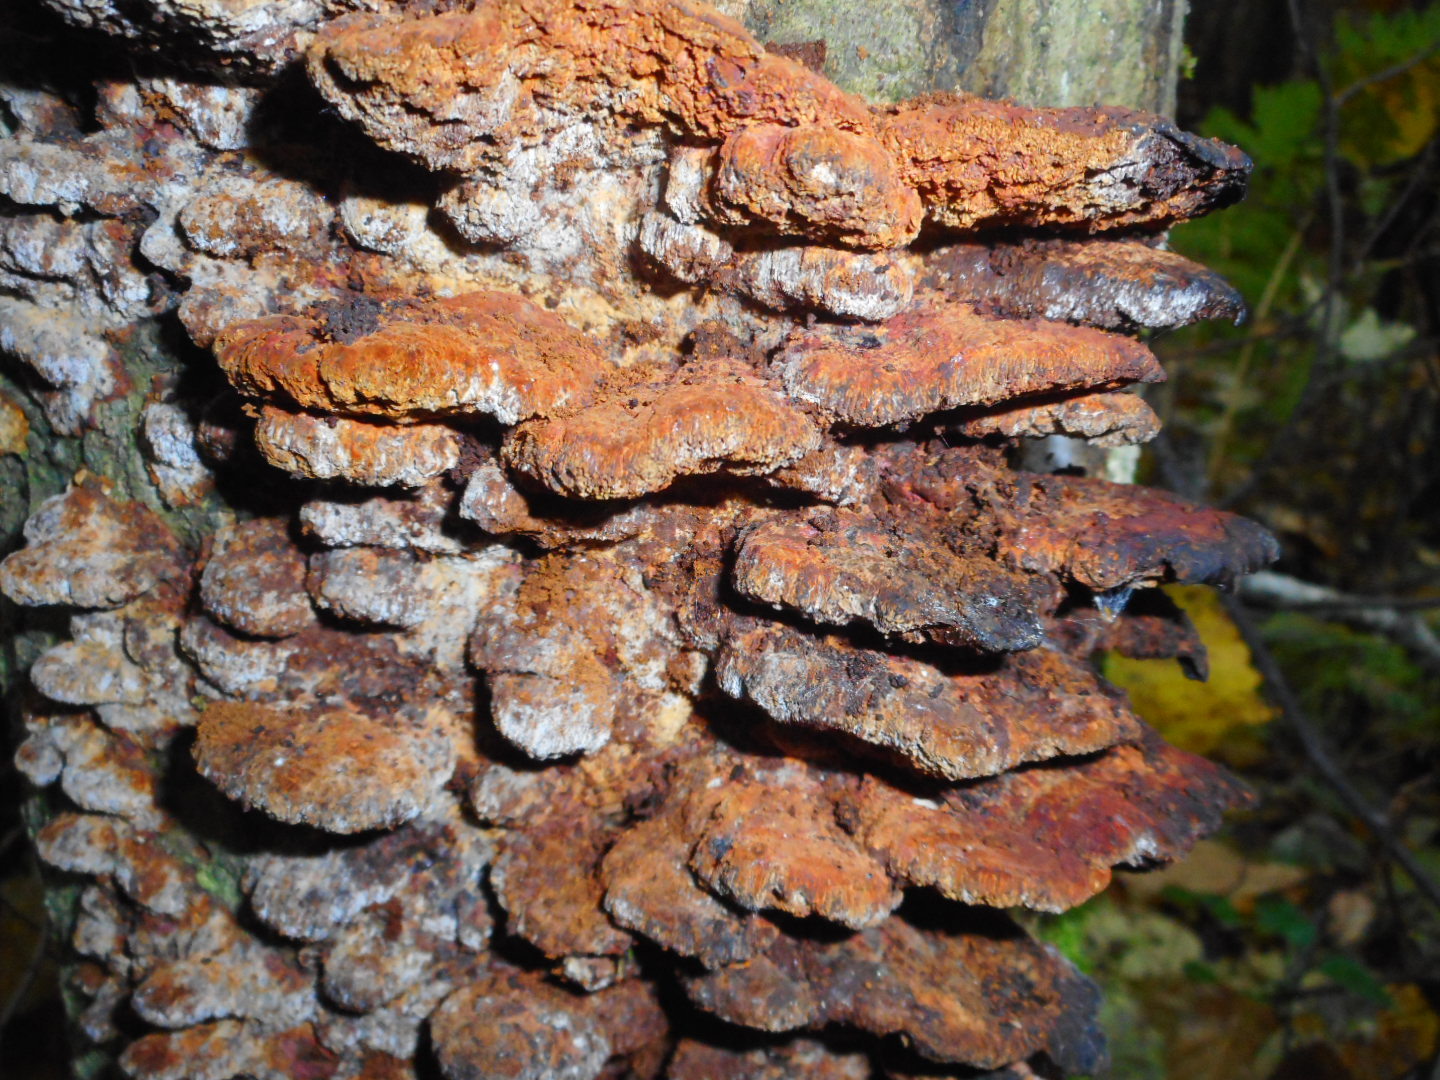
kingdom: Fungi
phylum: Basidiomycota
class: Agaricomycetes
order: Hymenochaetales
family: Hymenochaetaceae
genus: Xanthoporia
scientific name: Xanthoporia radiata
